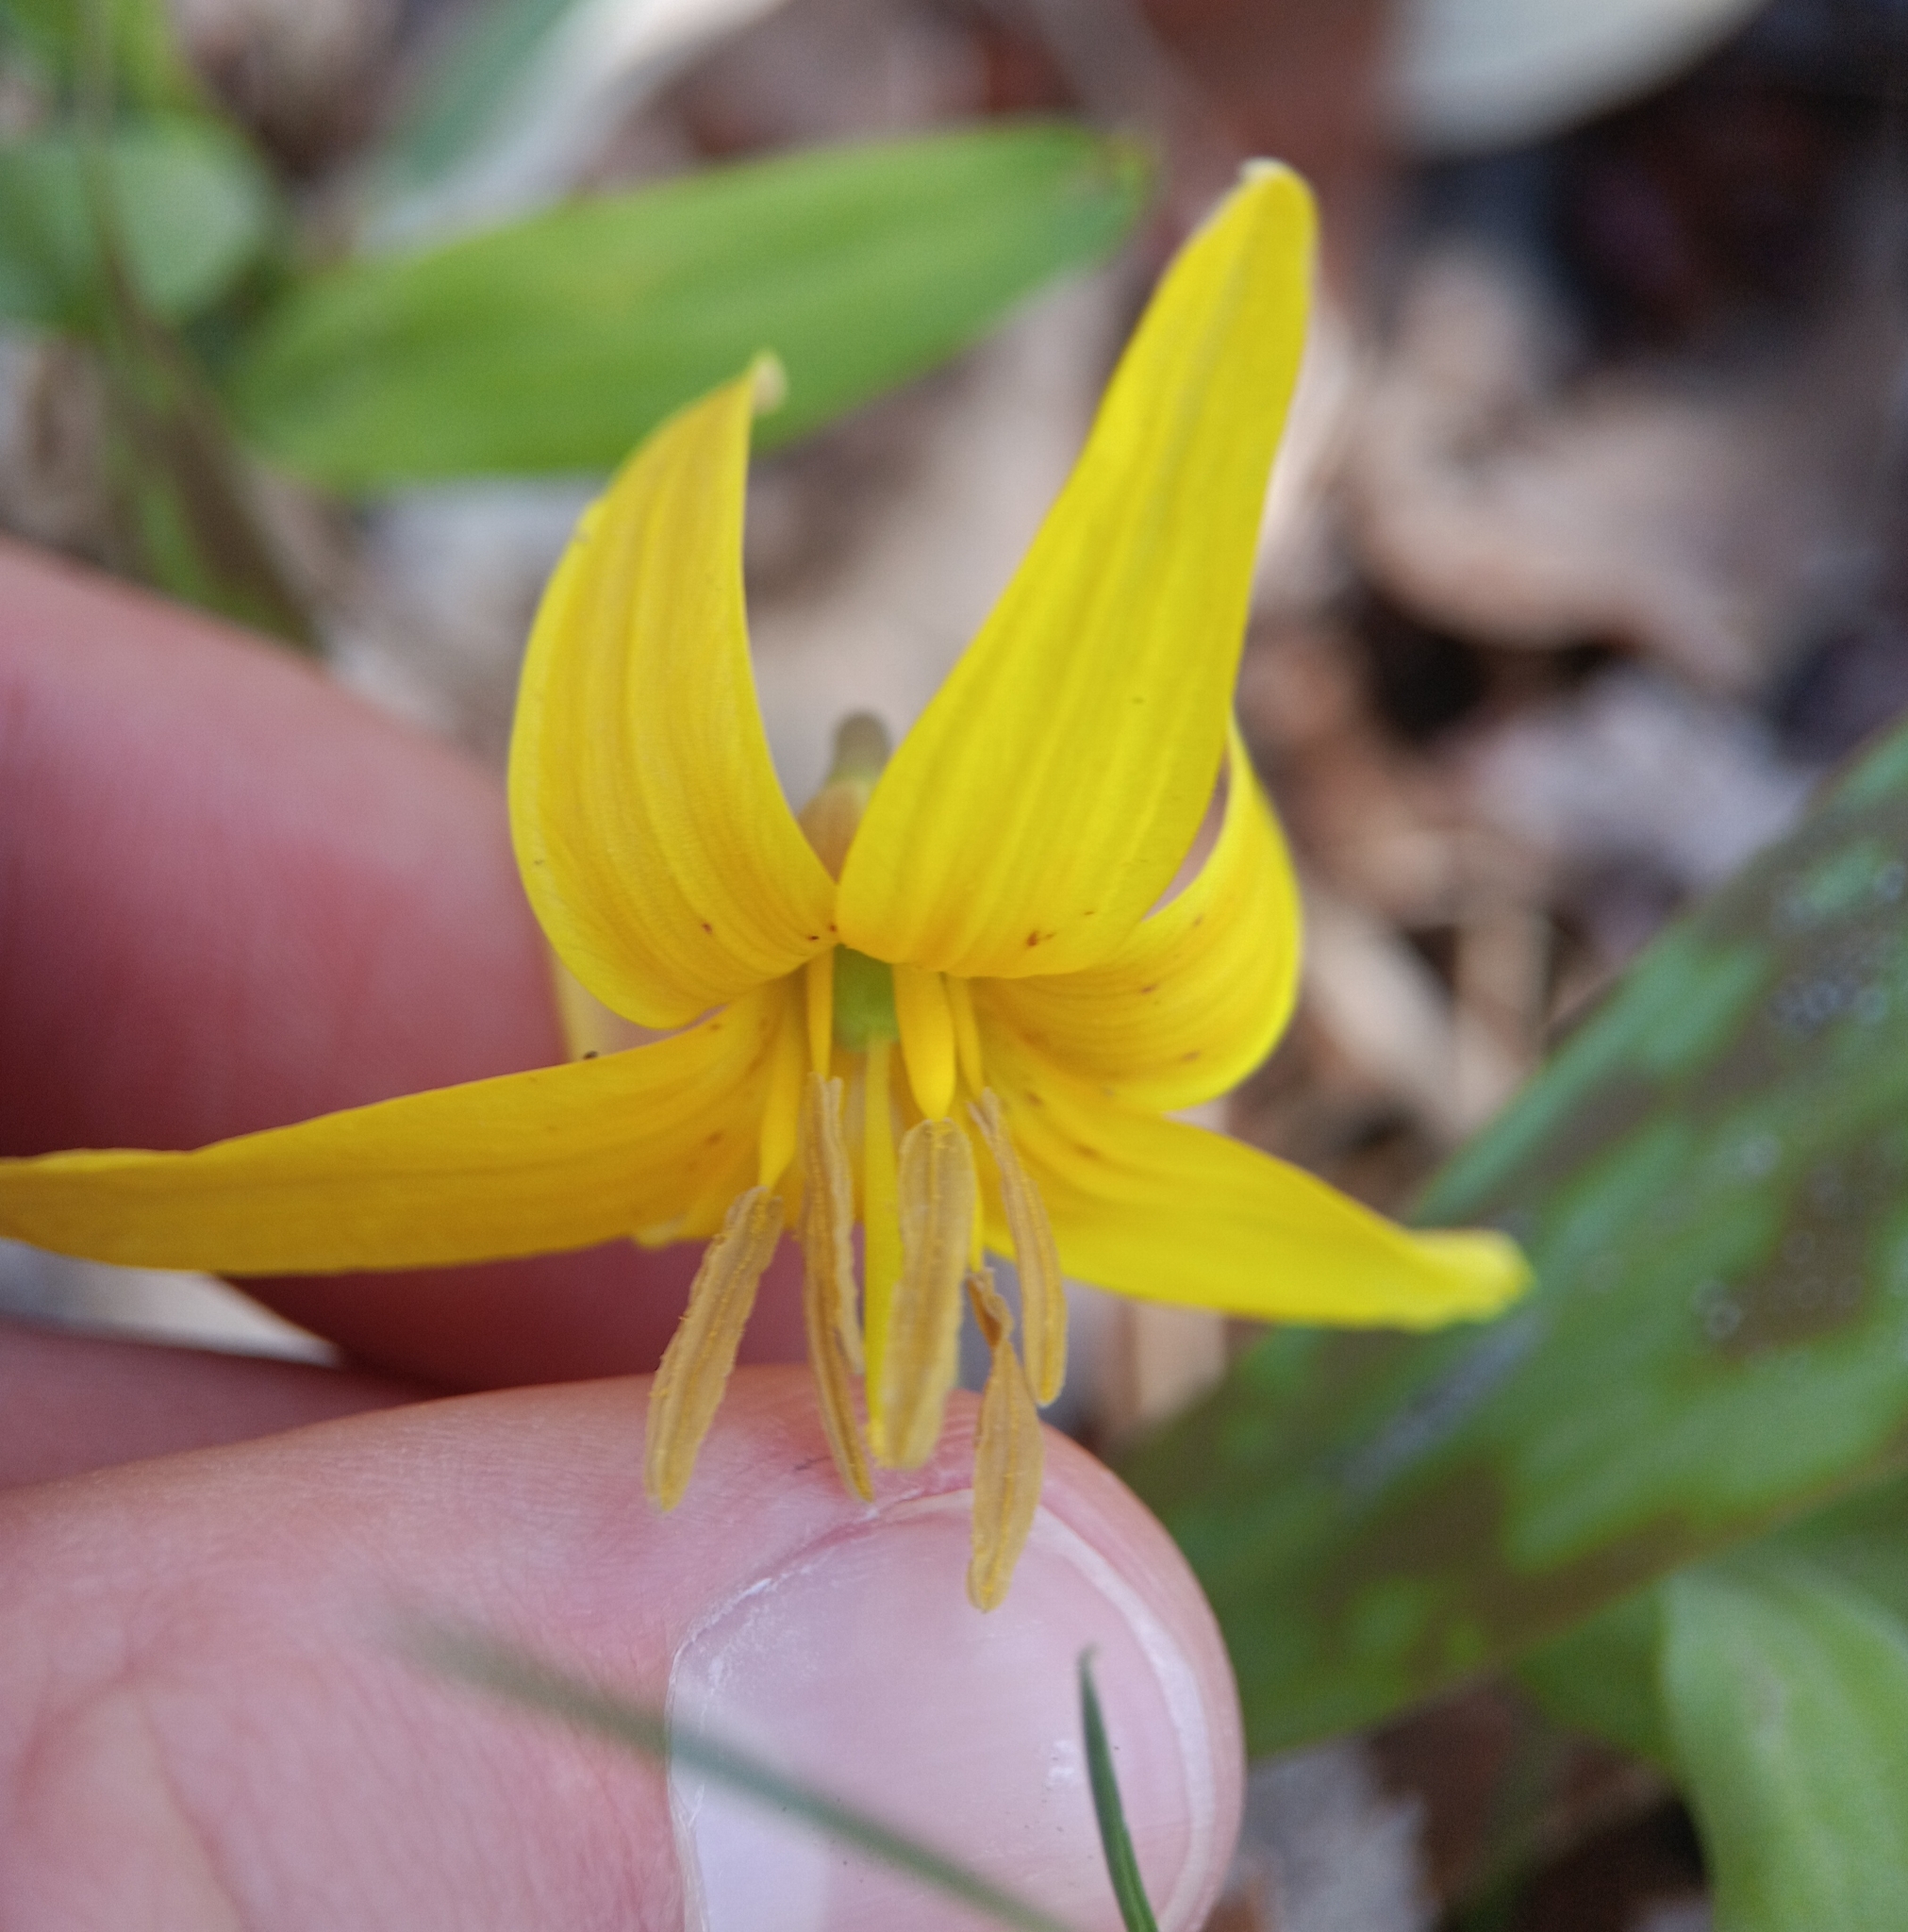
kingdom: Plantae
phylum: Tracheophyta
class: Liliopsida
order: Liliales
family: Liliaceae
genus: Erythronium
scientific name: Erythronium americanum
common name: Yellow adder's-tongue
